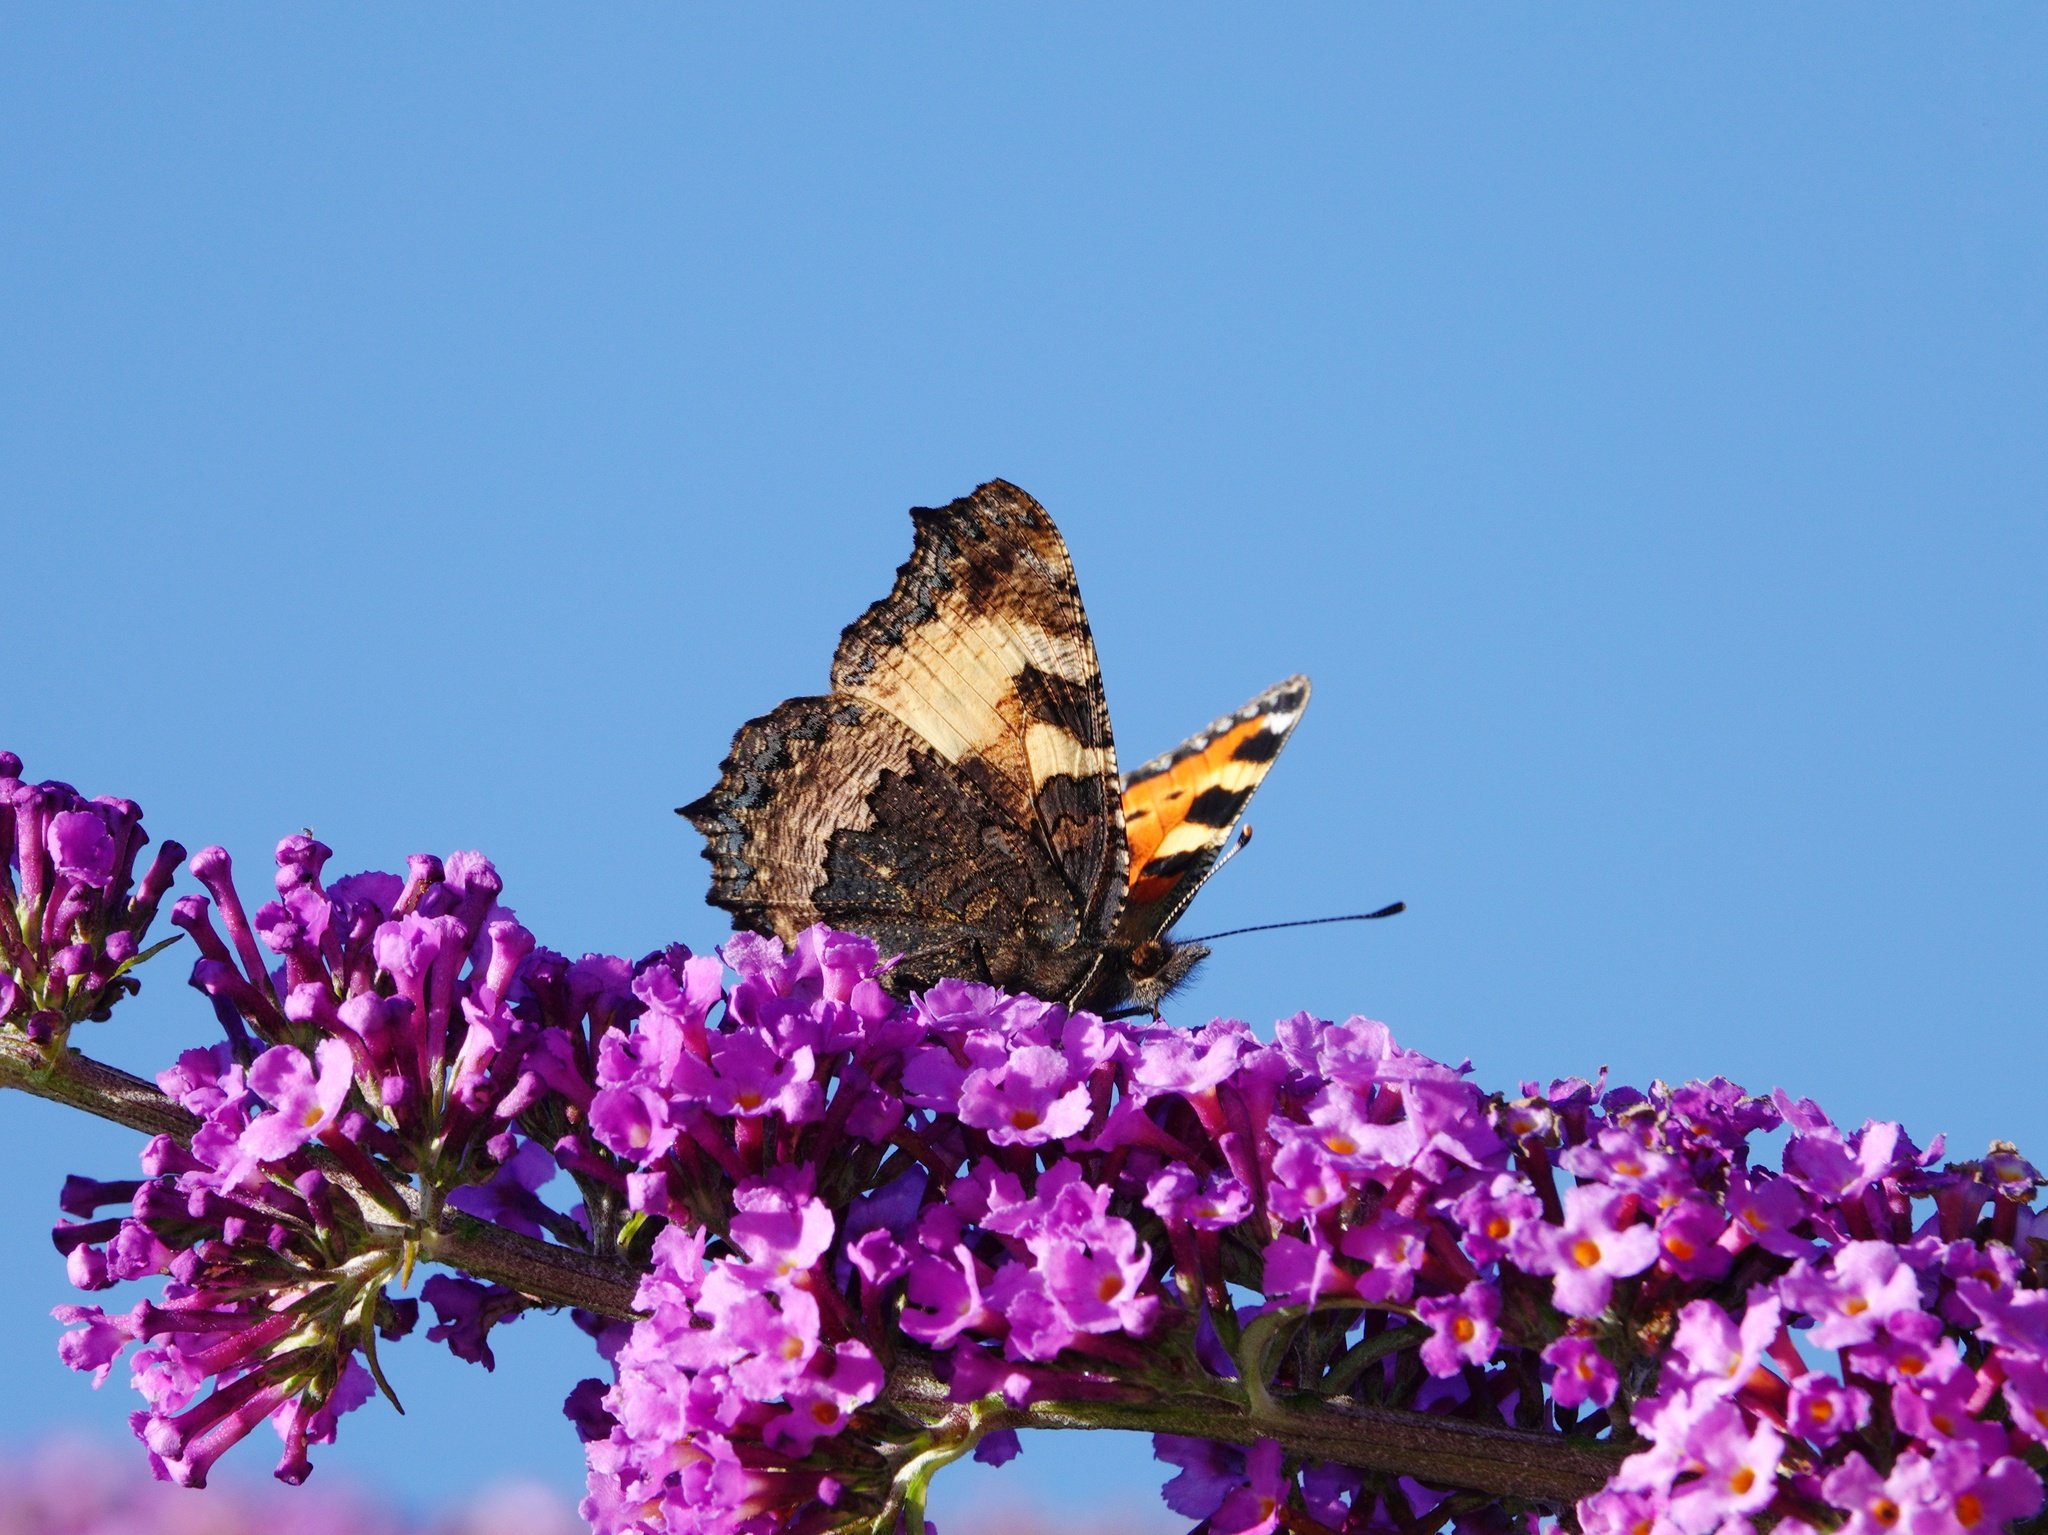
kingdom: Animalia
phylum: Arthropoda
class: Insecta
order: Lepidoptera
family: Nymphalidae
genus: Aglais
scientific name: Aglais urticae
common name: Small tortoiseshell
